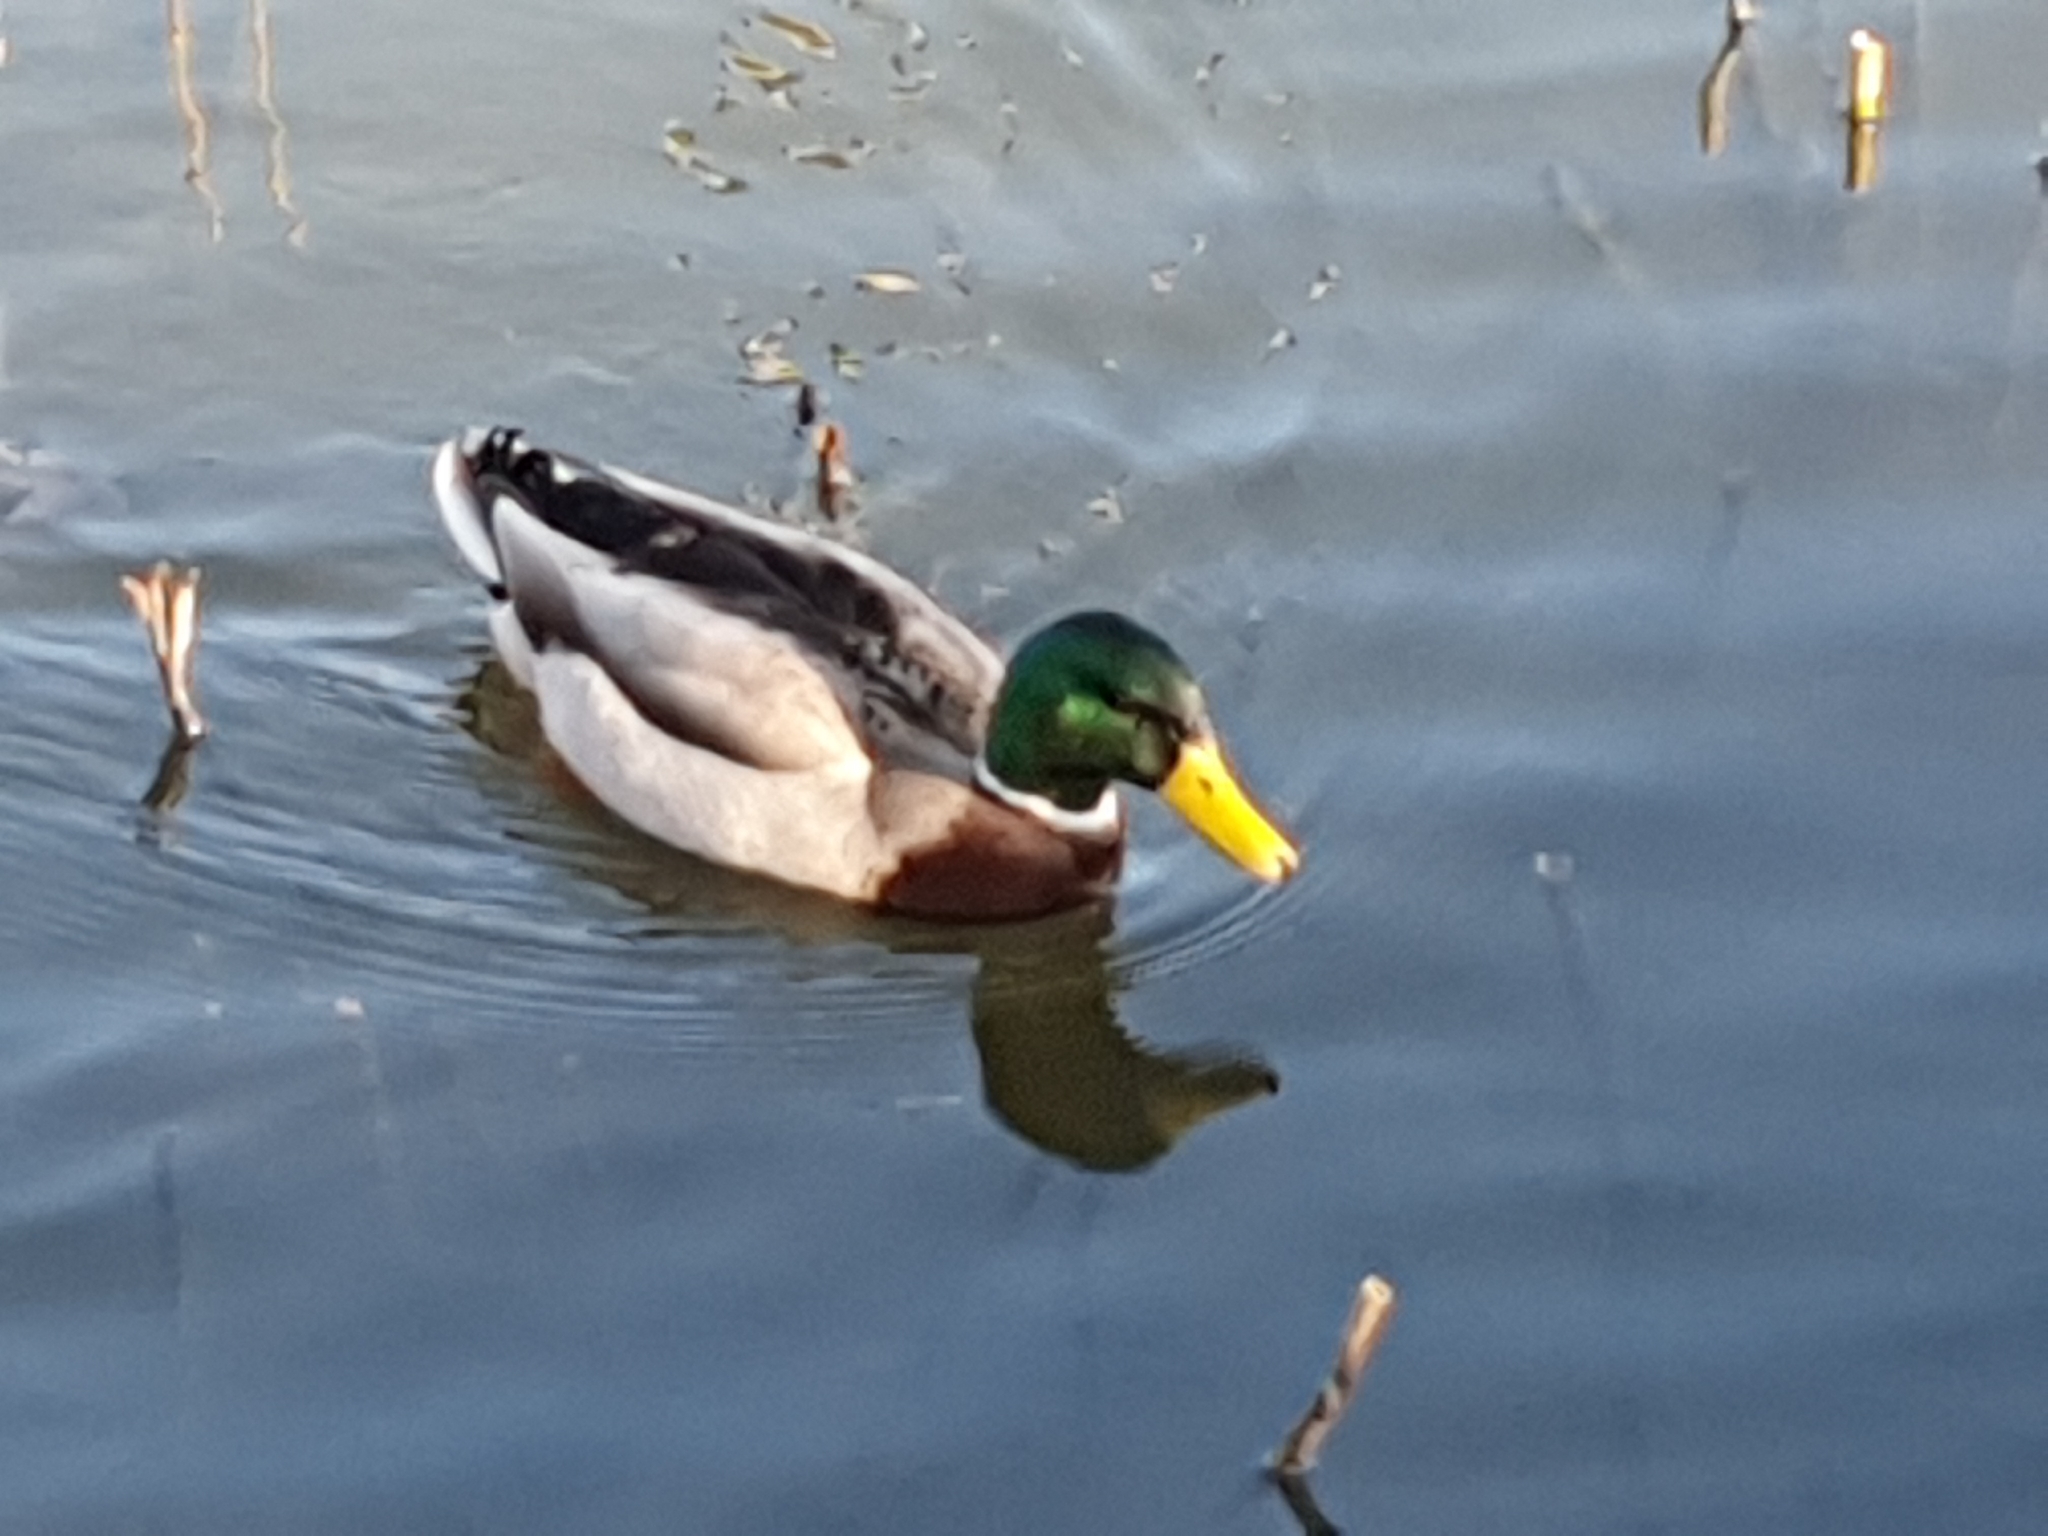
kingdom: Animalia
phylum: Chordata
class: Aves
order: Anseriformes
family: Anatidae
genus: Anas
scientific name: Anas platyrhynchos
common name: Mallard
